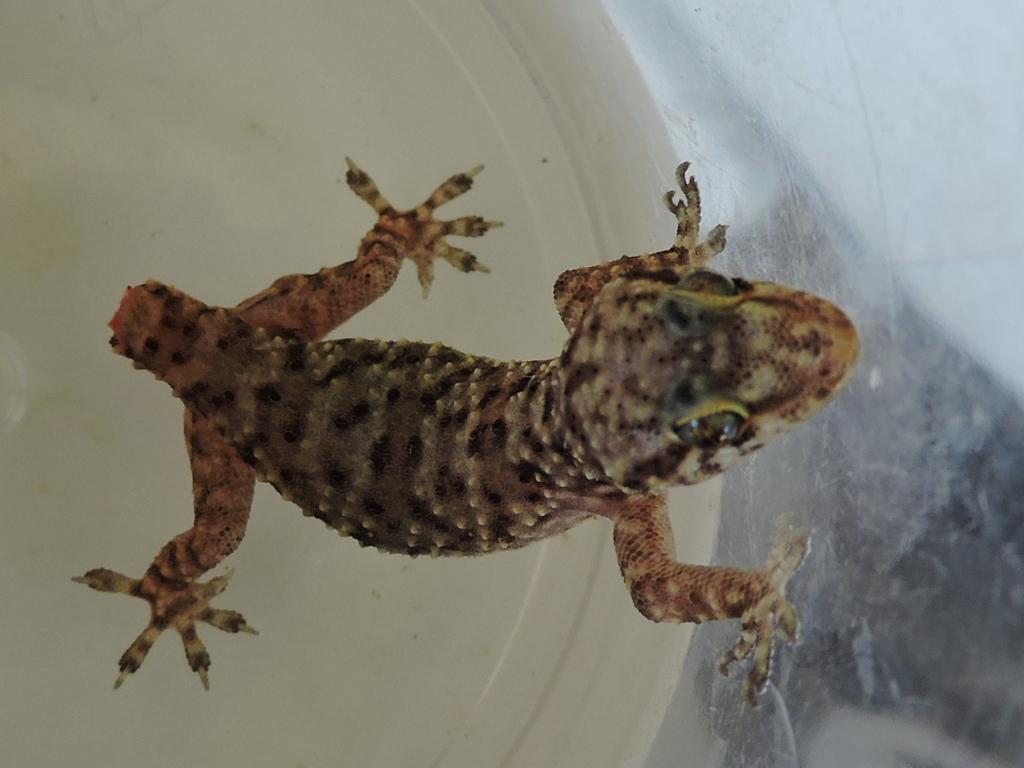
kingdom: Animalia
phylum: Chordata
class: Squamata
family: Gekkonidae
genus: Hemidactylus
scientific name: Hemidactylus turcicus
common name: Turkish gecko
